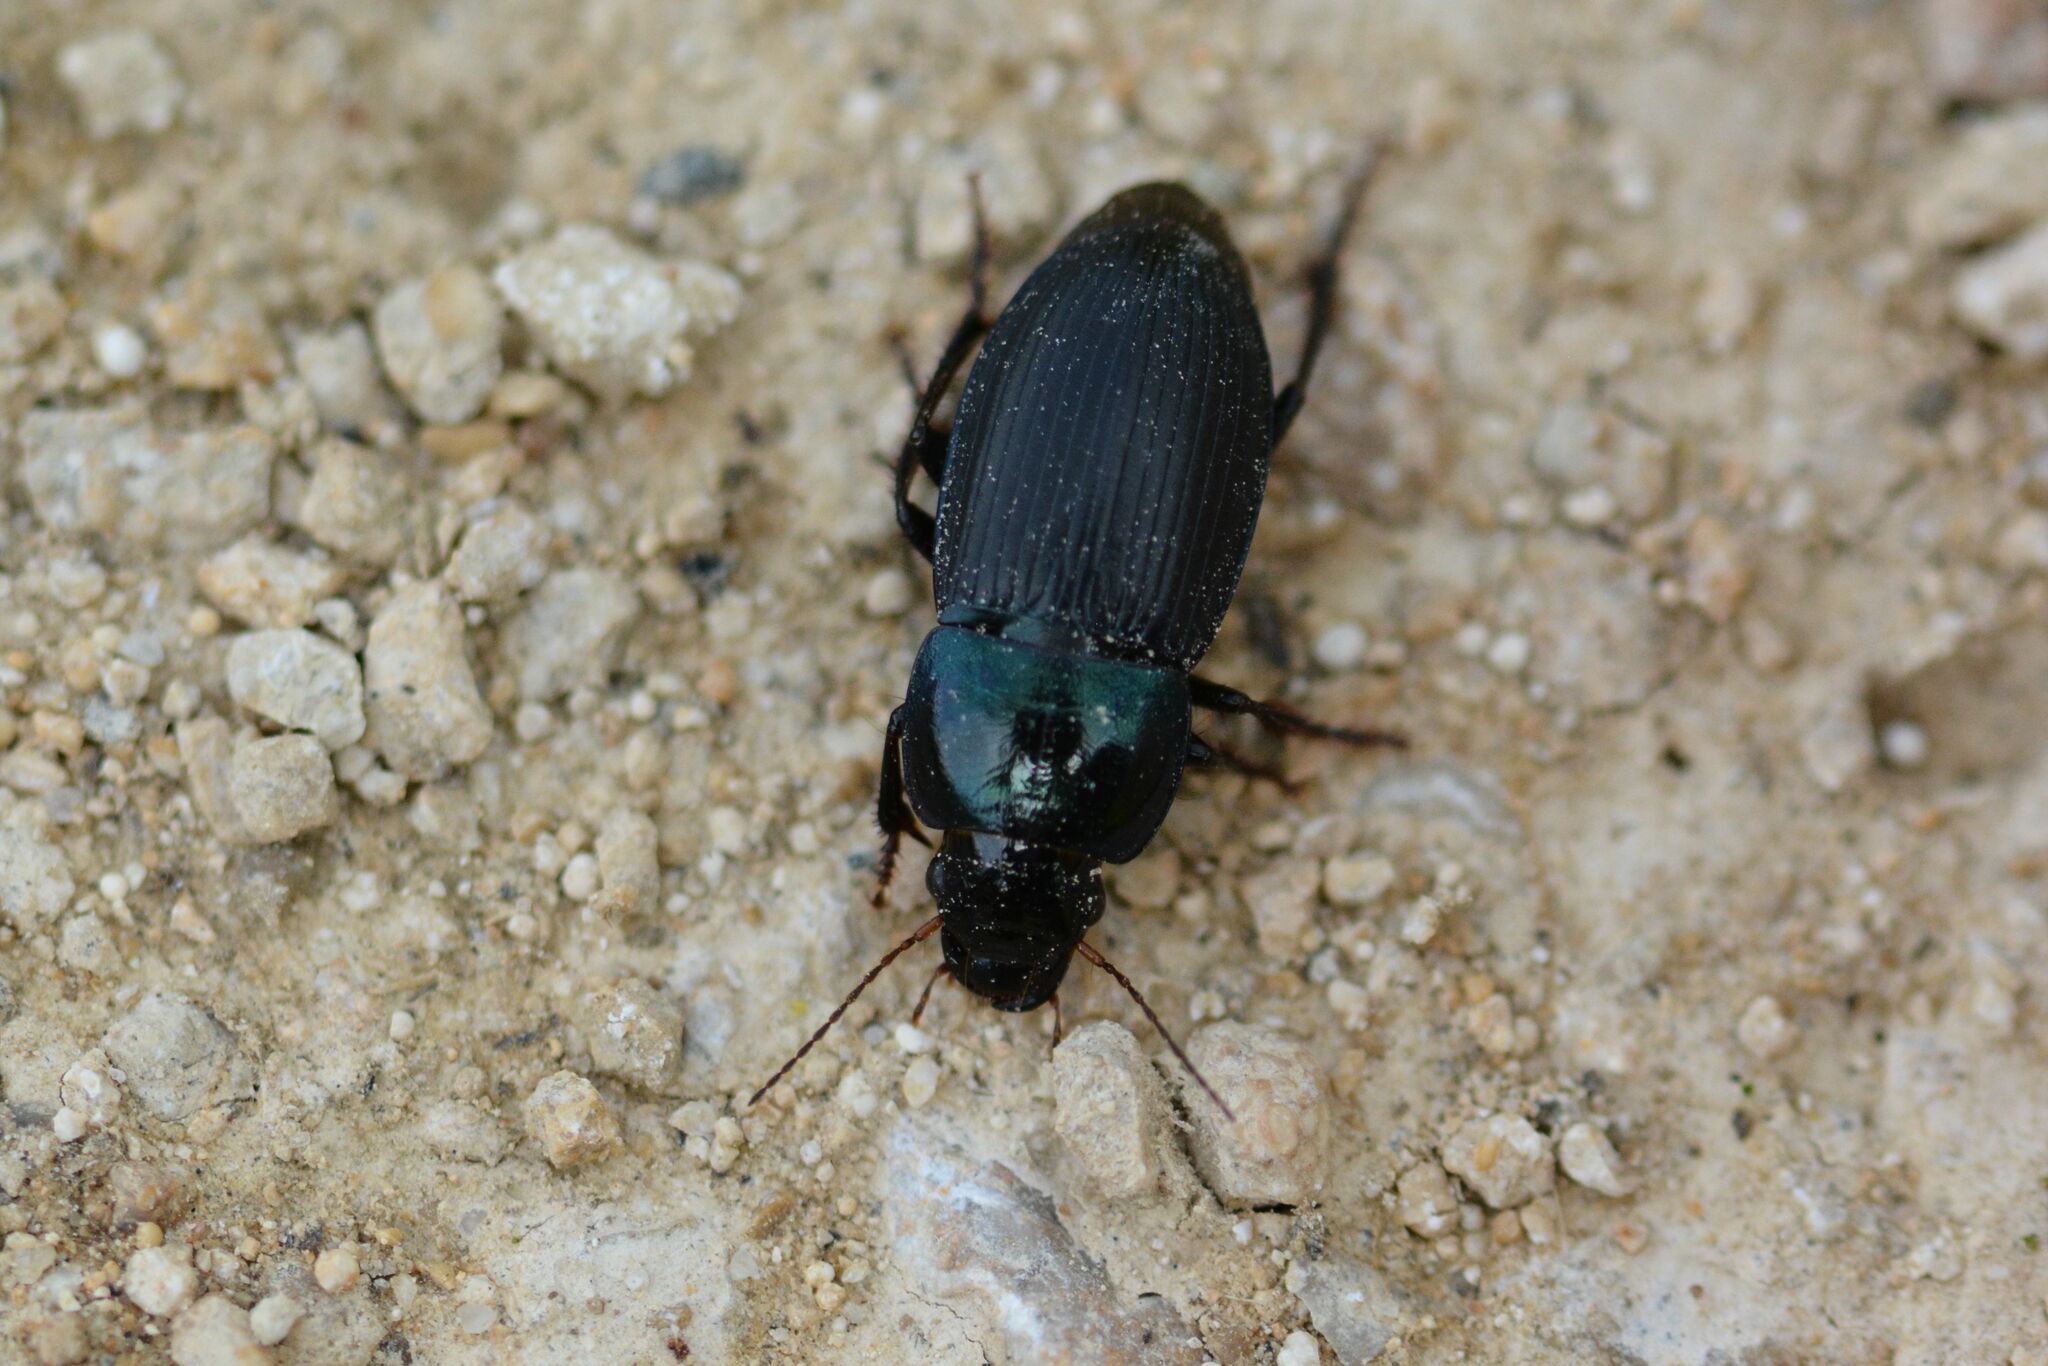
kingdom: Animalia
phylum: Arthropoda
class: Insecta
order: Coleoptera
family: Carabidae
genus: Harpalus
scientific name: Harpalus dimidiatus
